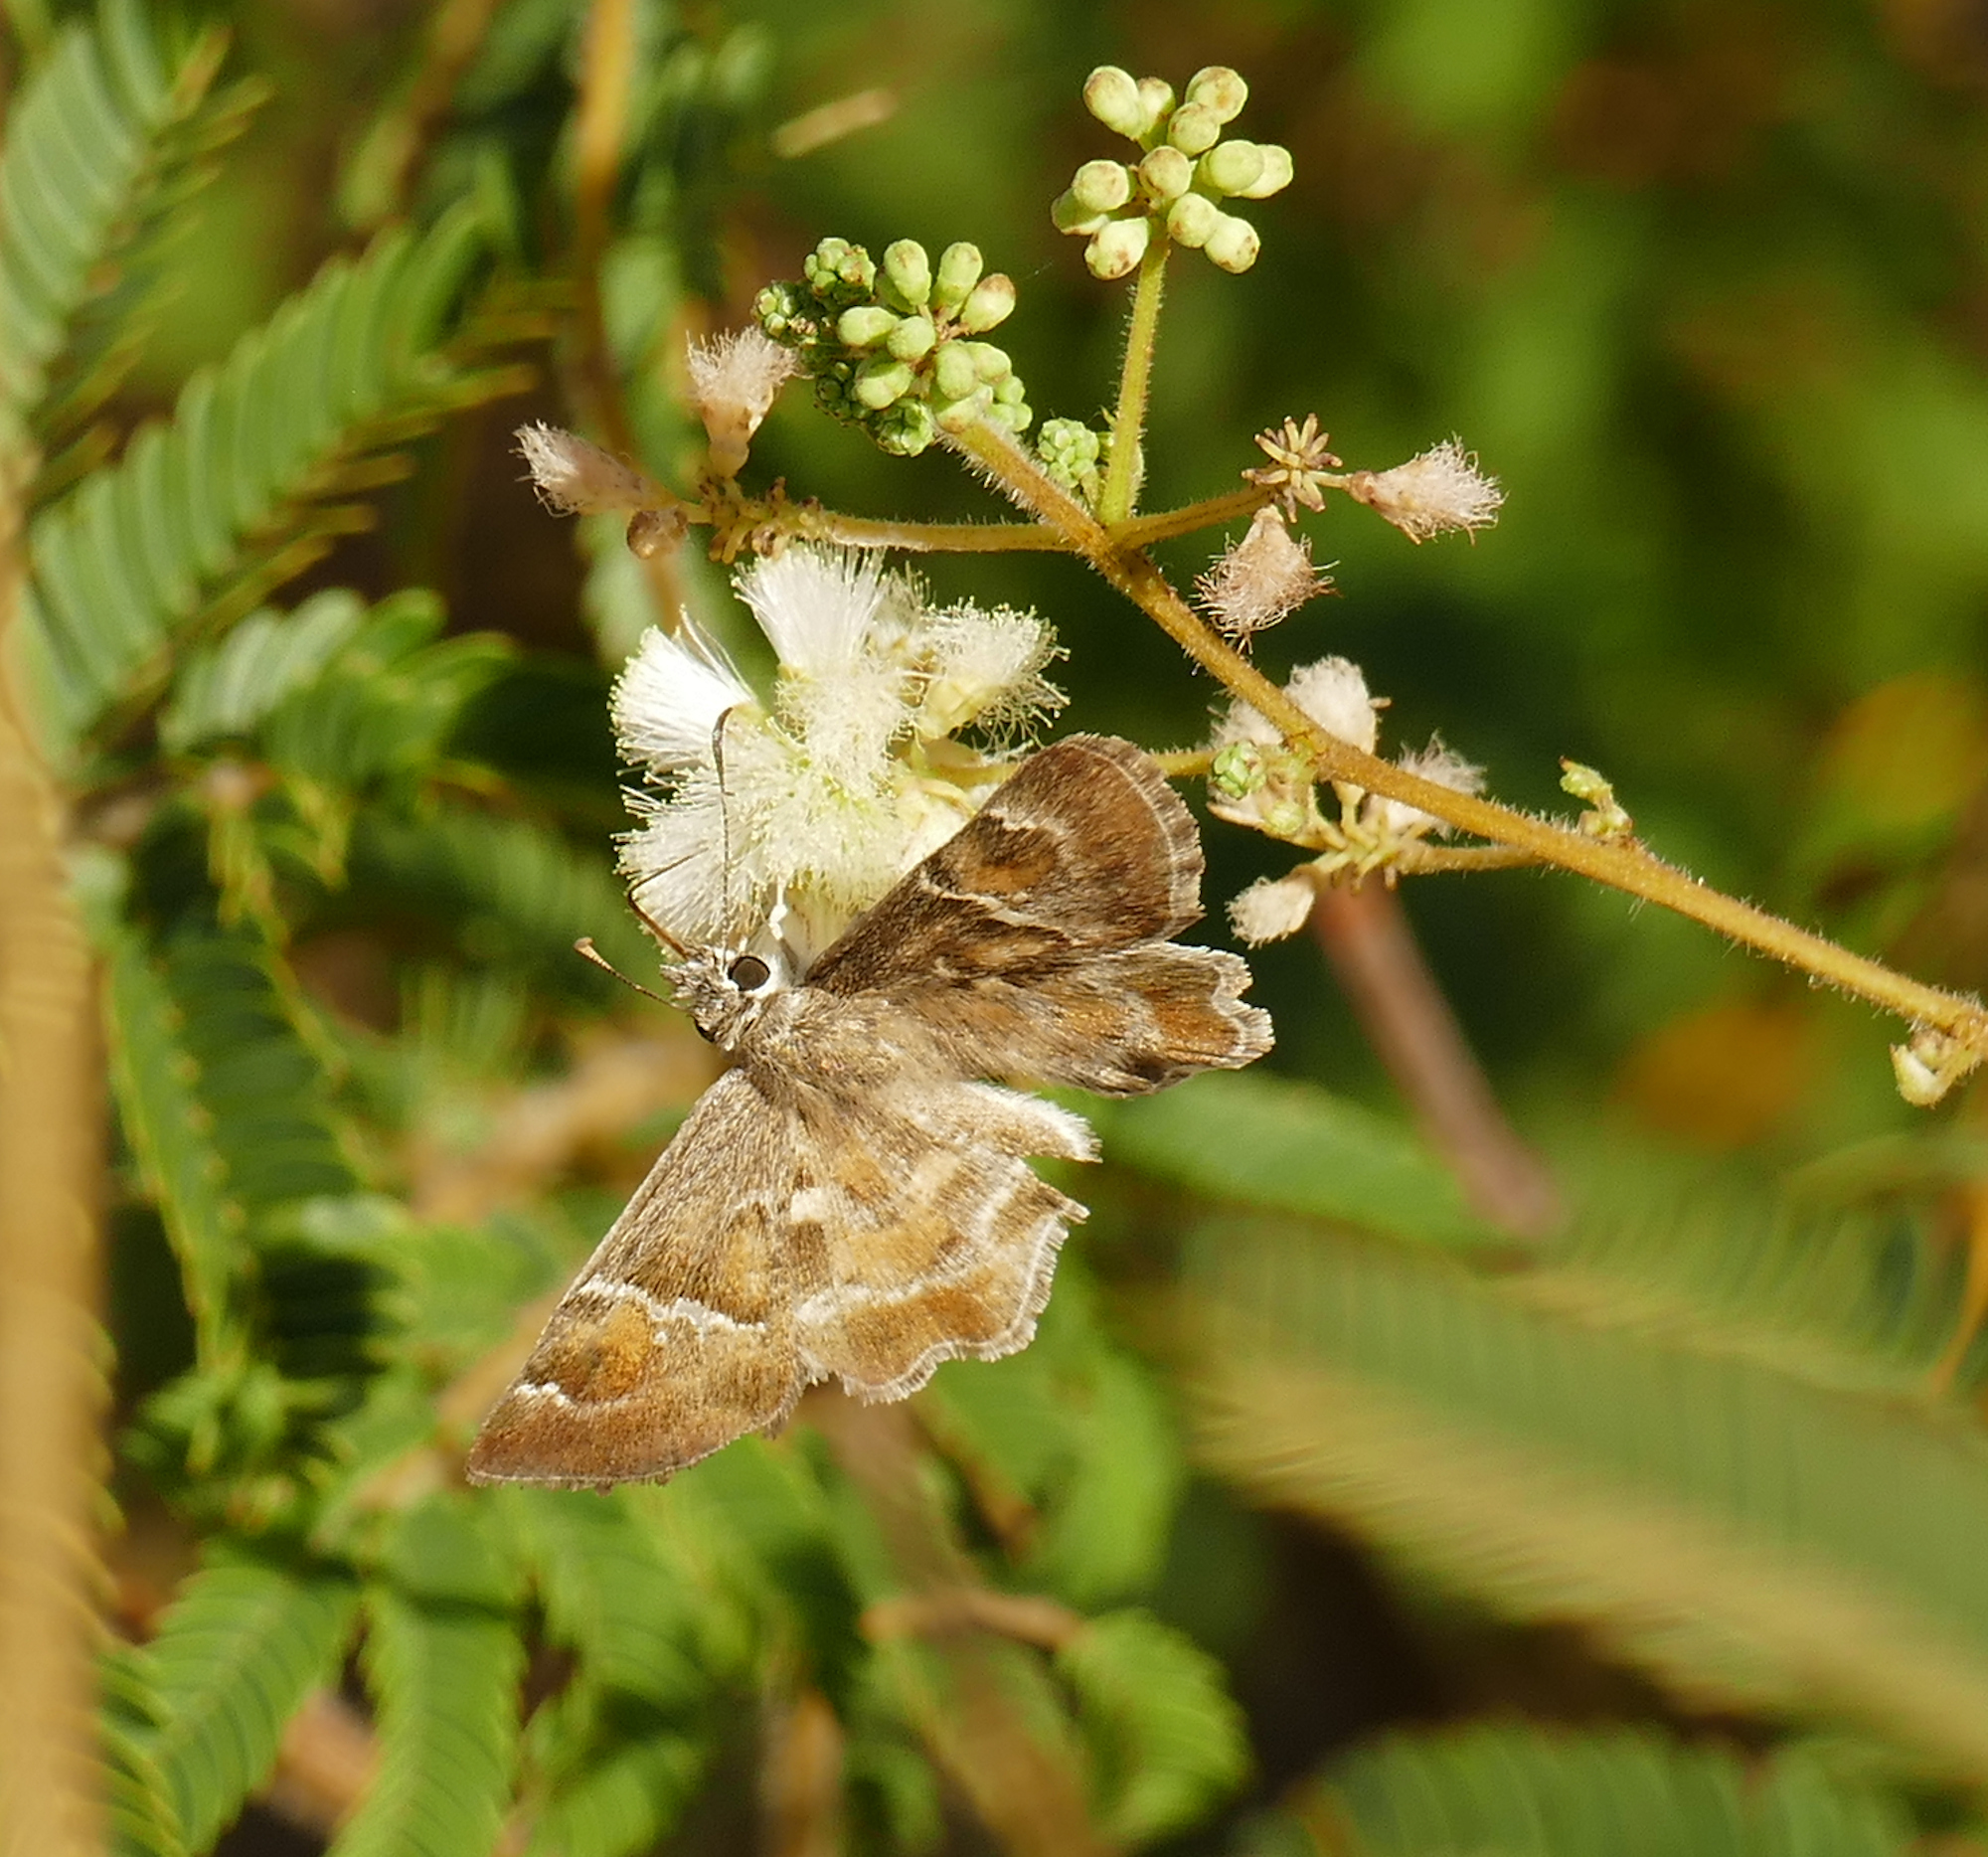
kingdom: Animalia
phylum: Arthropoda
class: Insecta
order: Lepidoptera
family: Hesperiidae
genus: Systasea
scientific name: Systasea zampa
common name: Arizona powdered-skipper
